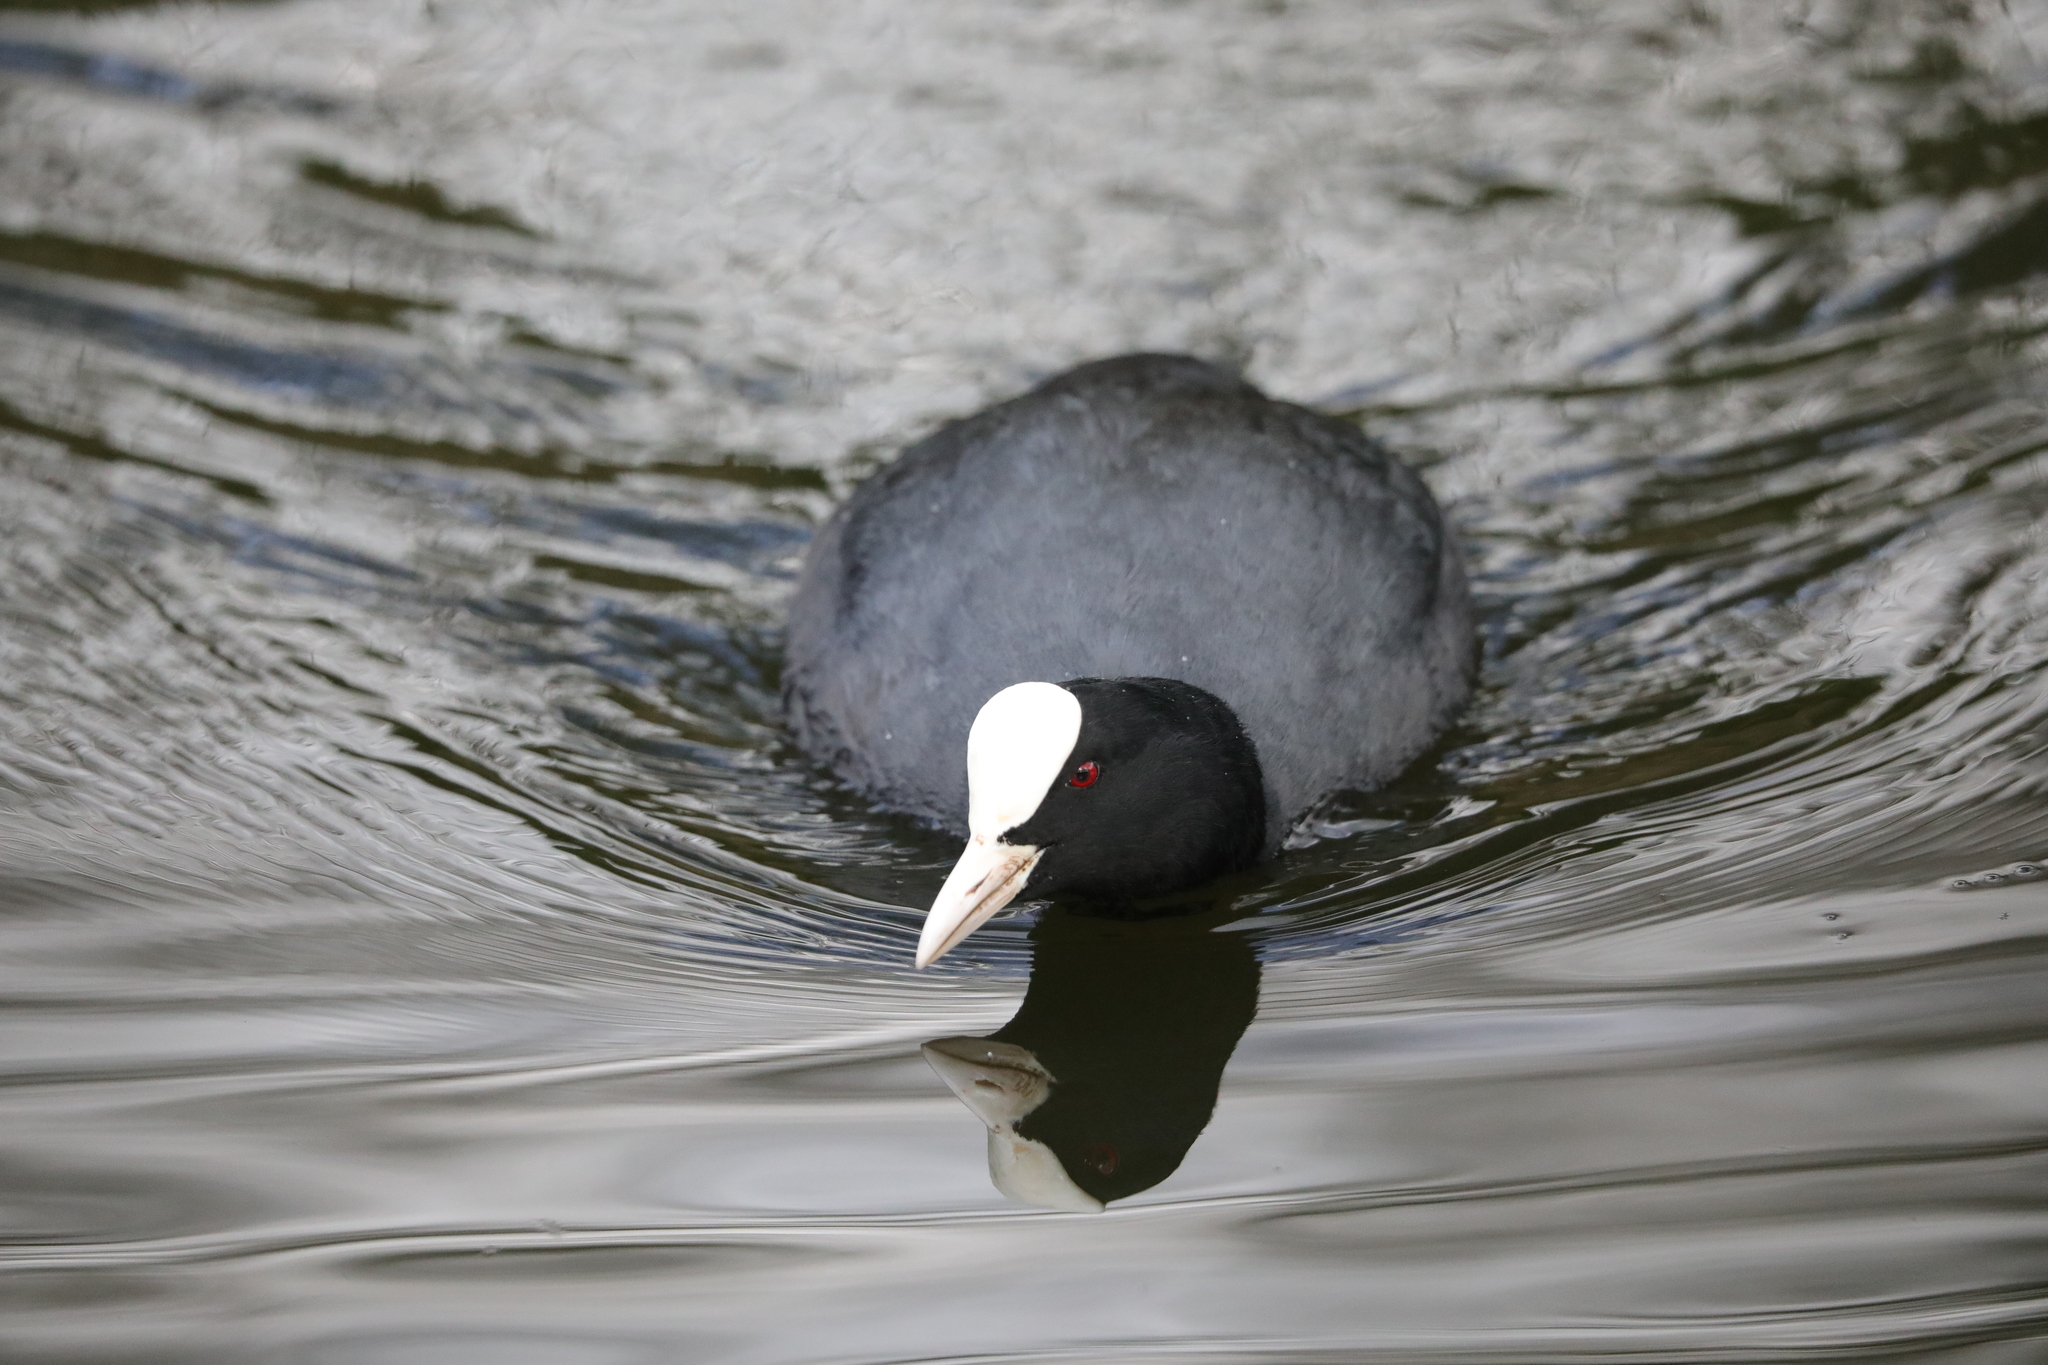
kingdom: Animalia
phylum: Chordata
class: Aves
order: Gruiformes
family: Rallidae
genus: Fulica
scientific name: Fulica atra
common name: Eurasian coot
